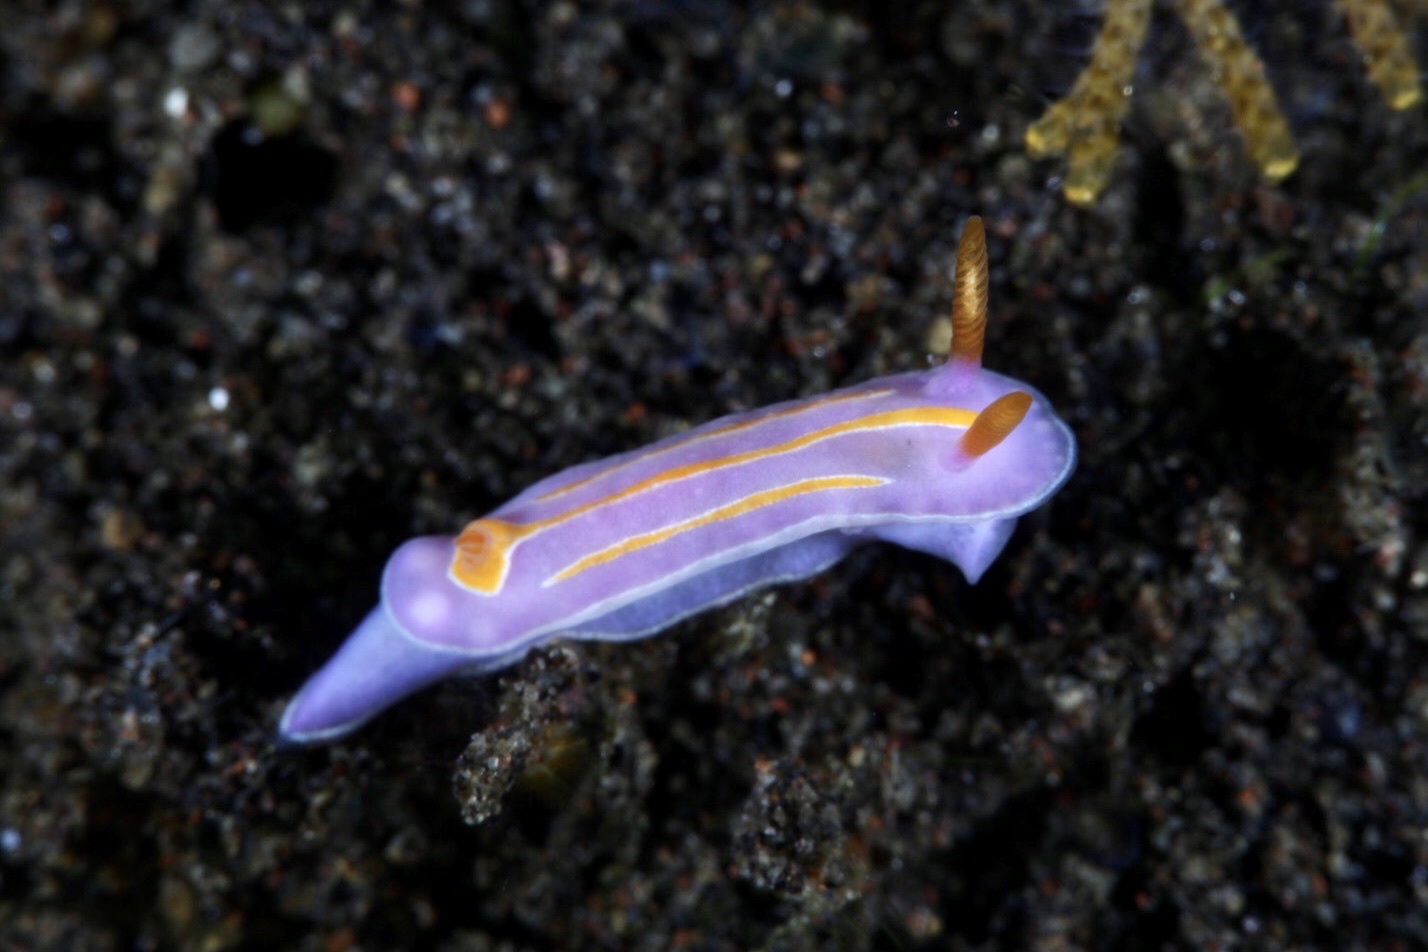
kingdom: Animalia
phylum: Mollusca
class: Gastropoda
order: Nudibranchia
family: Chromodorididae
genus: Mexichromis
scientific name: Mexichromis trilineata
